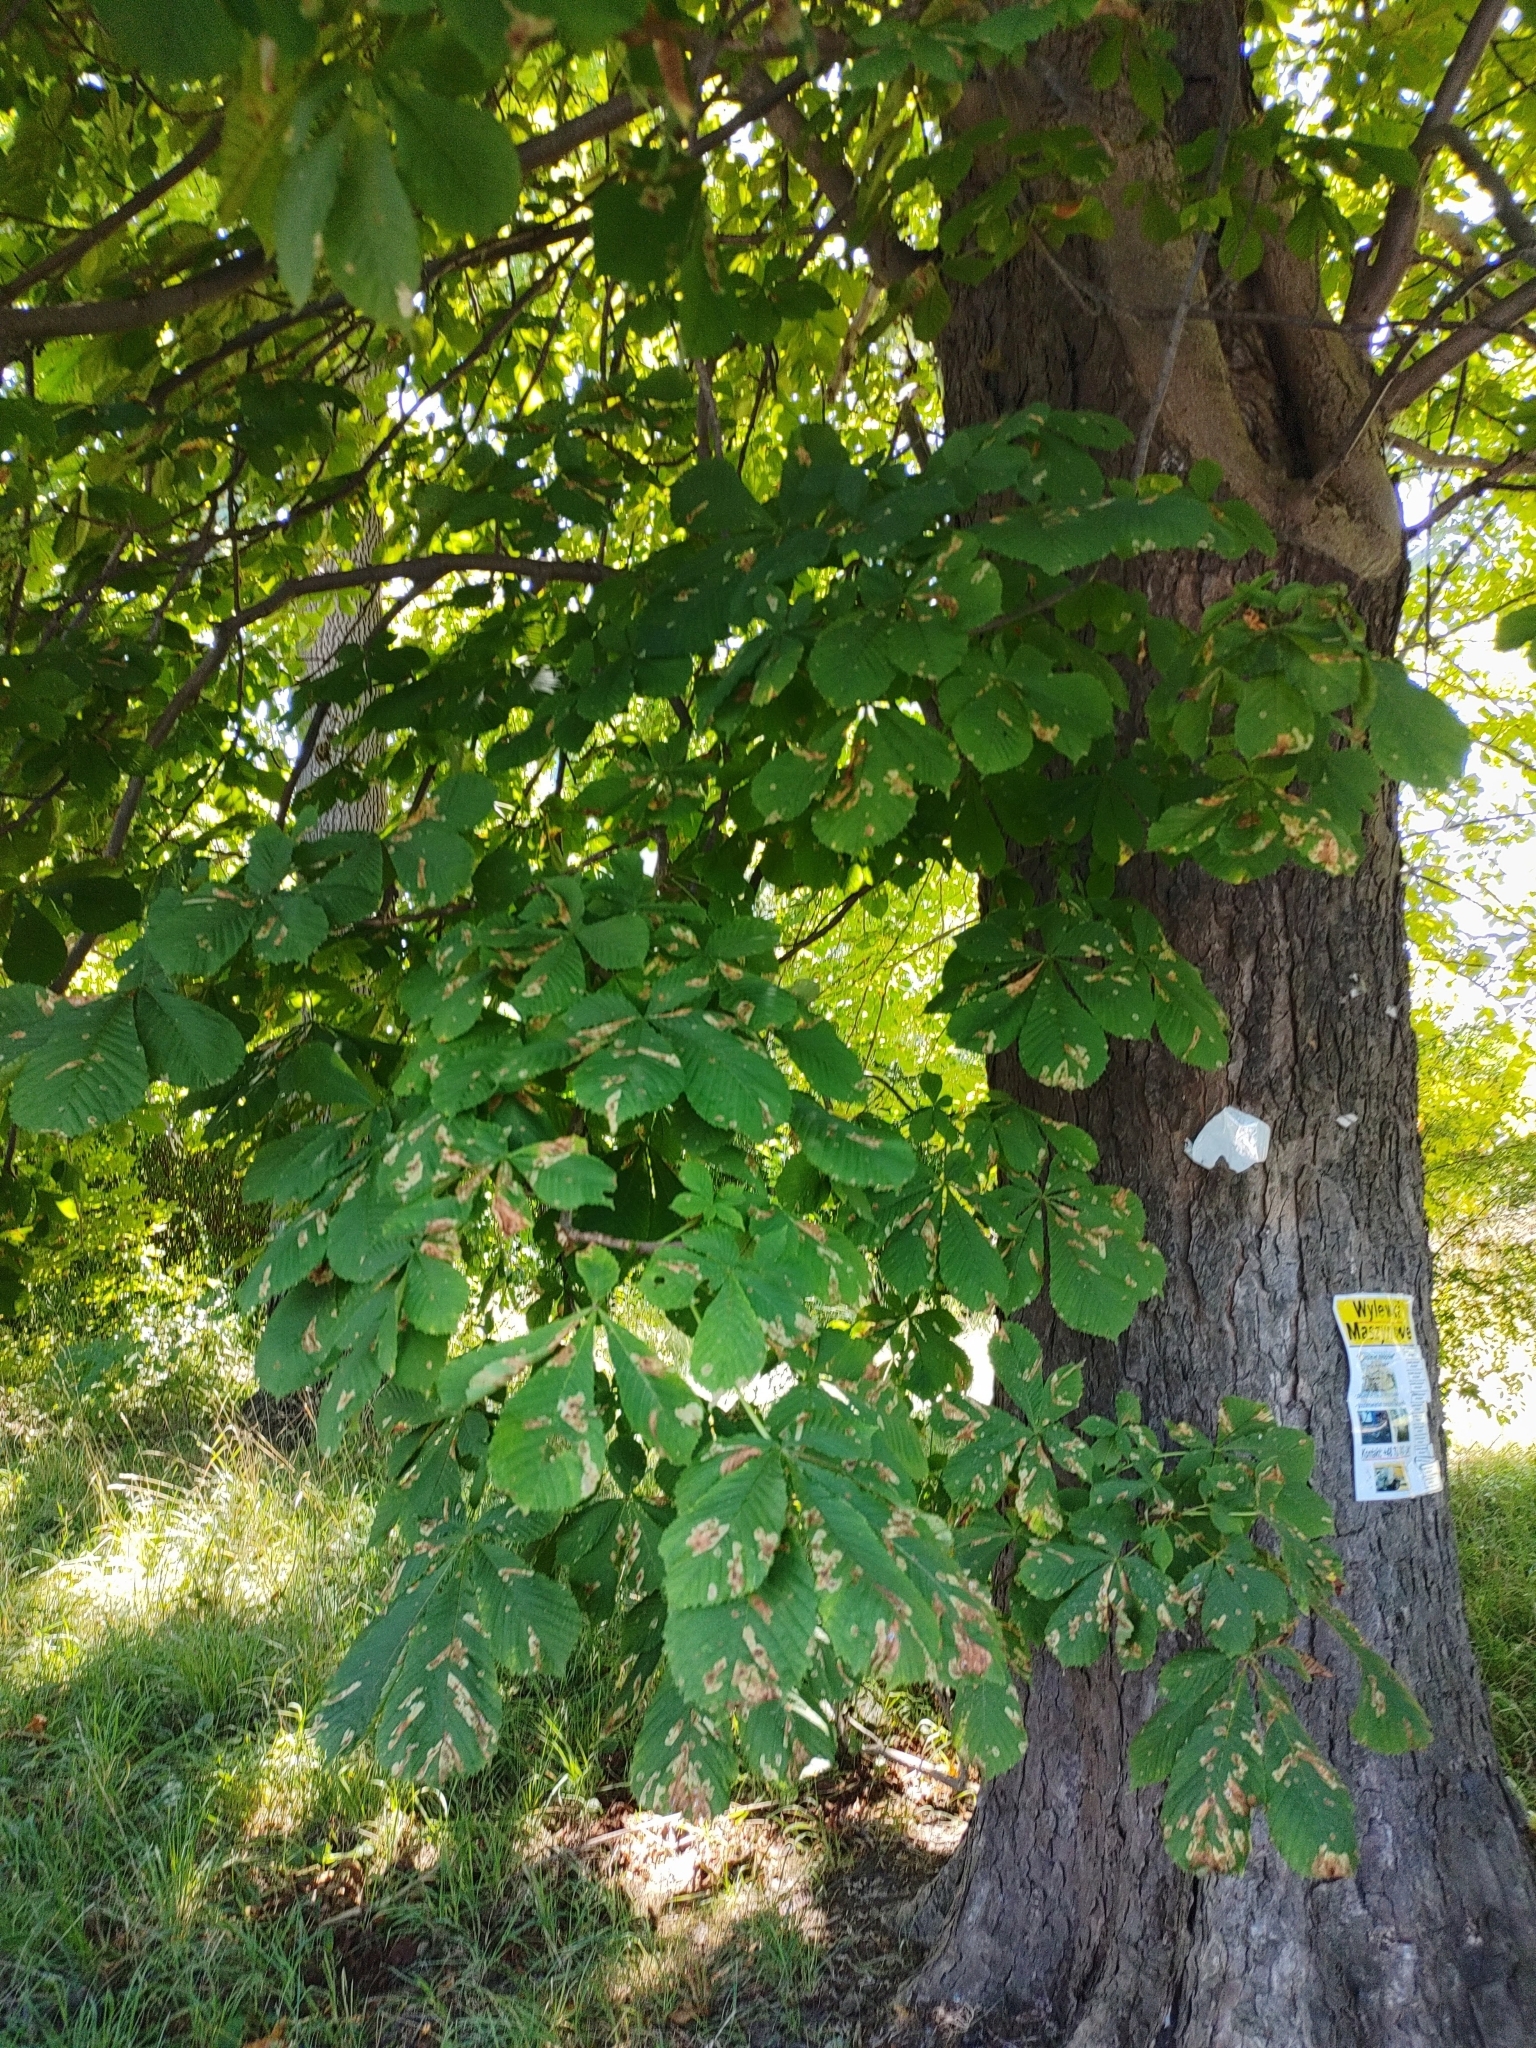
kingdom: Animalia
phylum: Arthropoda
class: Insecta
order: Lepidoptera
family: Gracillariidae
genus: Cameraria
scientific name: Cameraria ohridella
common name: Horse-chestnut leaf-miner
